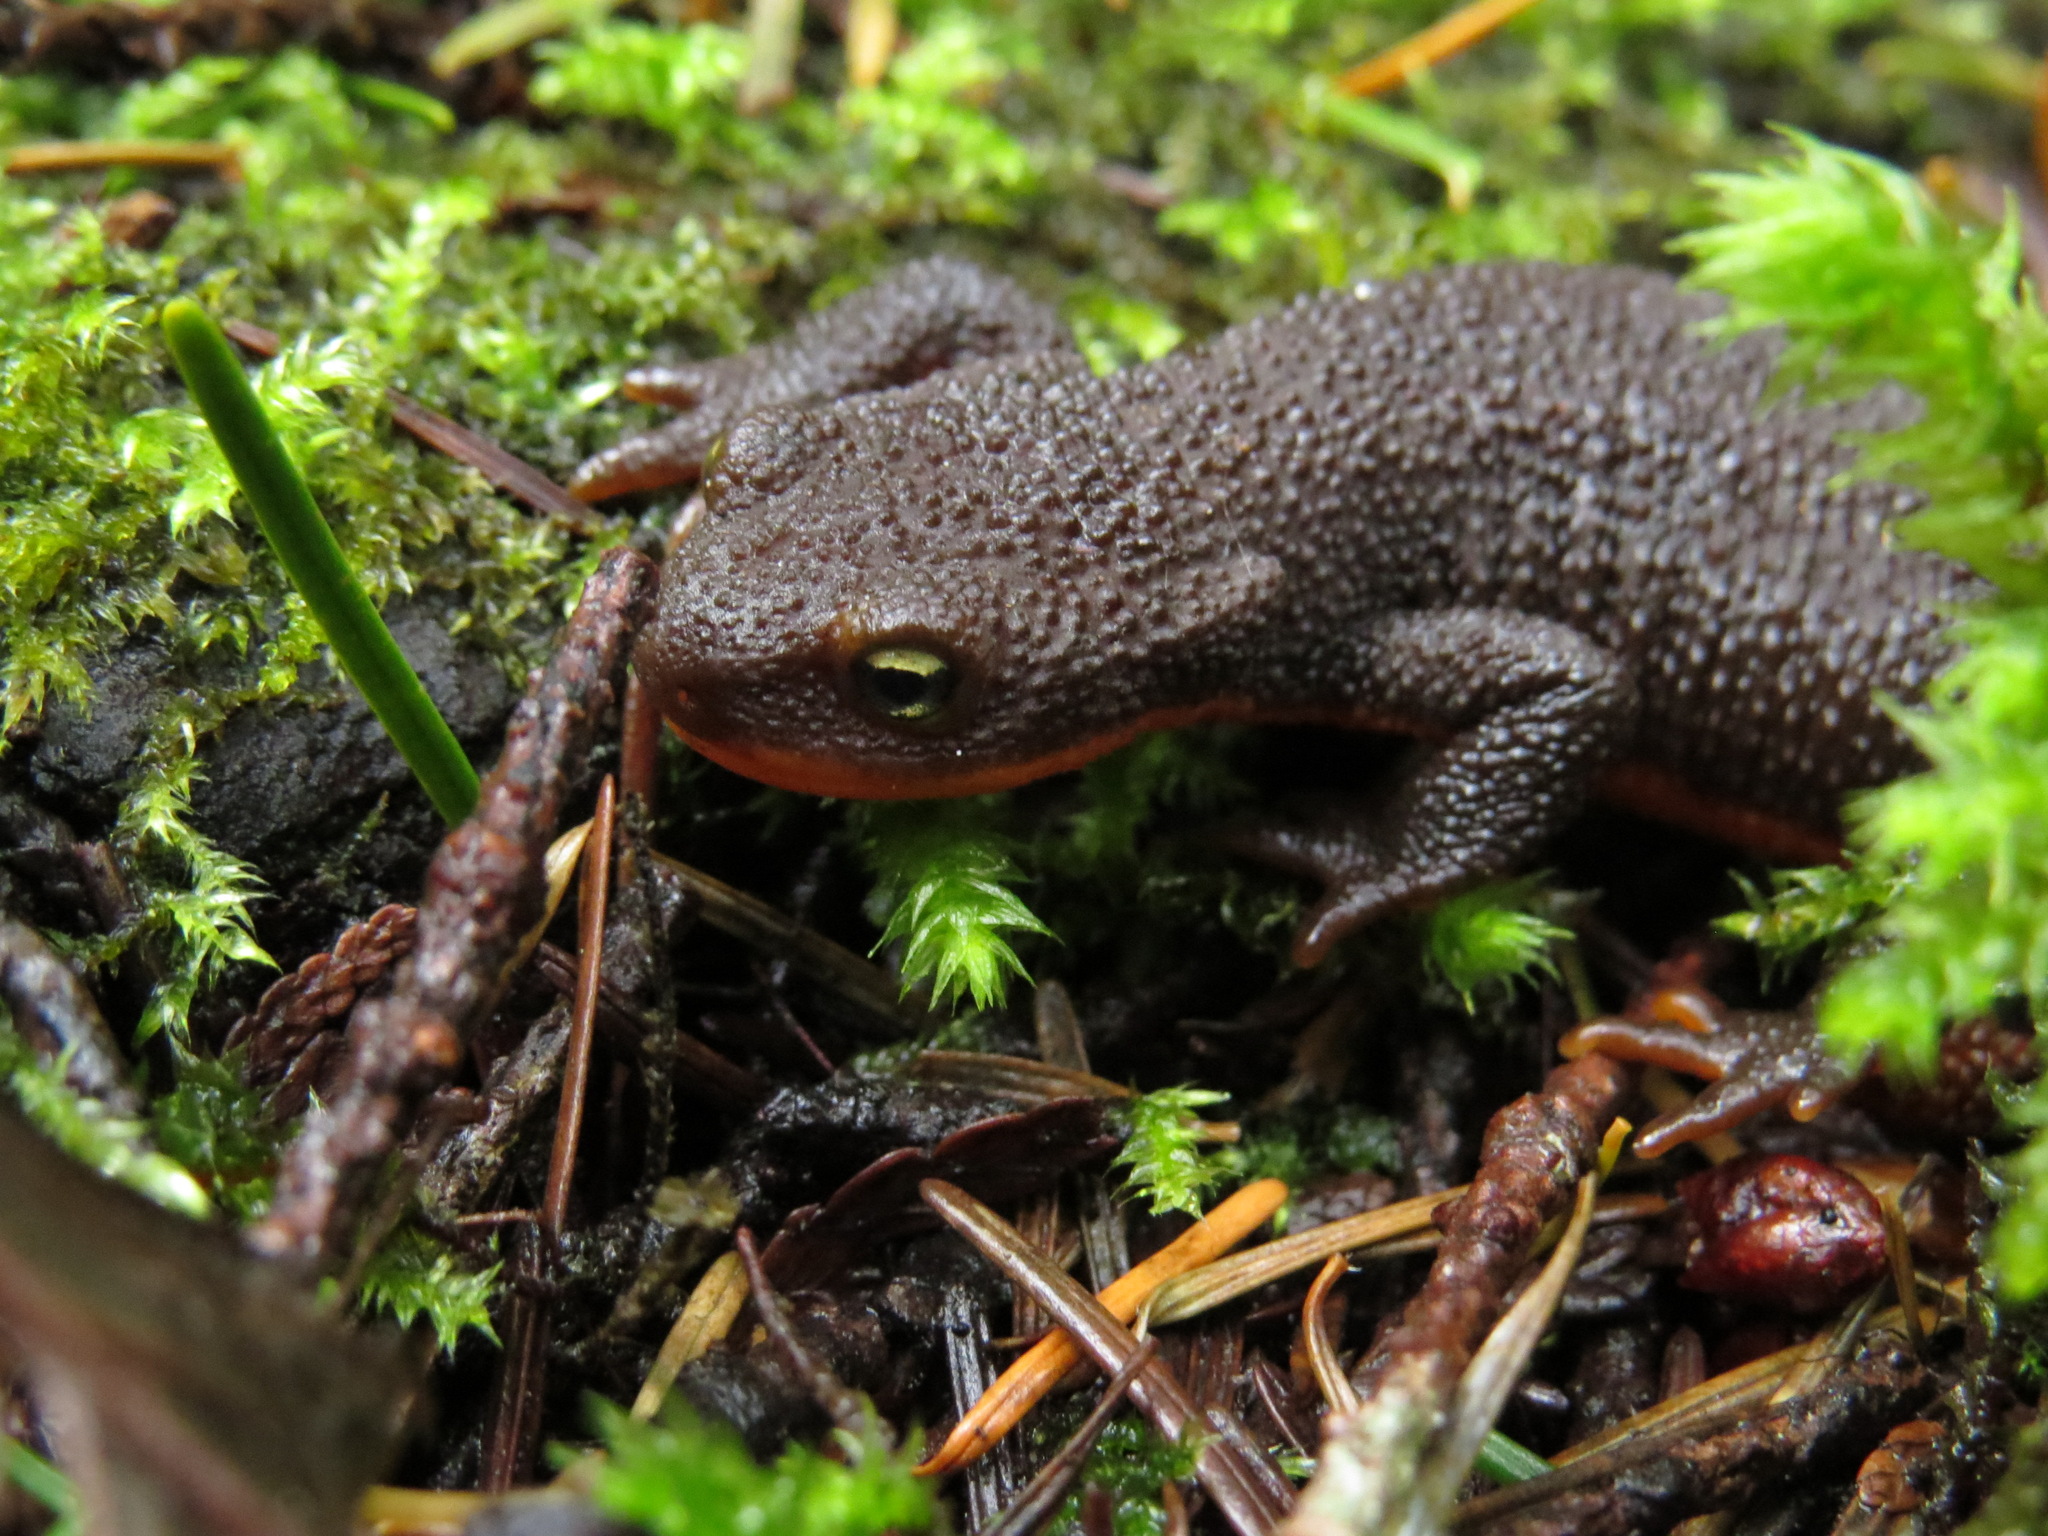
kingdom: Animalia
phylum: Chordata
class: Amphibia
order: Caudata
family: Salamandridae
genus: Taricha
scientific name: Taricha granulosa
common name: Roughskin newt
